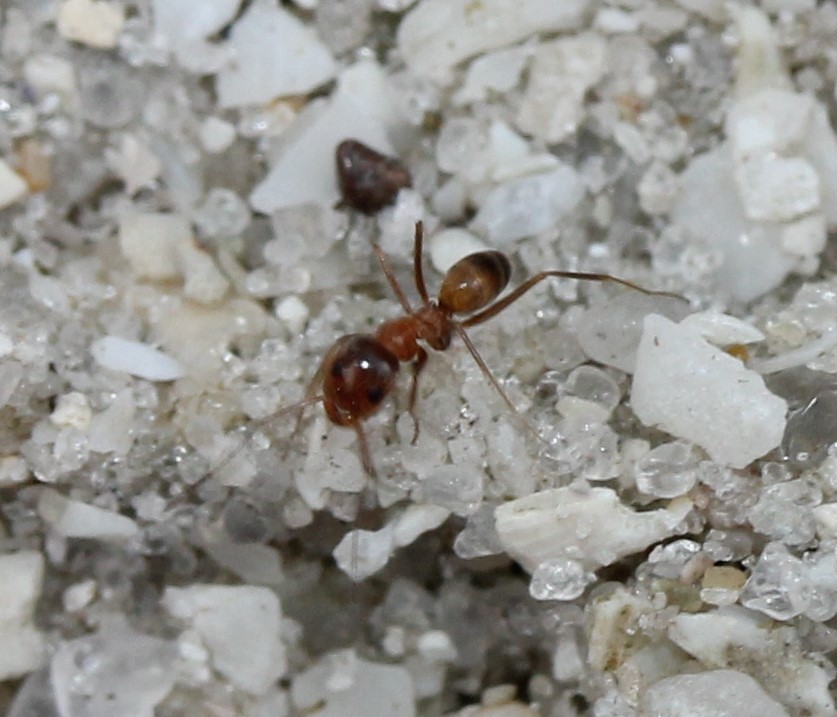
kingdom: Animalia
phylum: Arthropoda
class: Insecta
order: Hymenoptera
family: Formicidae
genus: Dorymyrmex
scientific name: Dorymyrmex bureni
